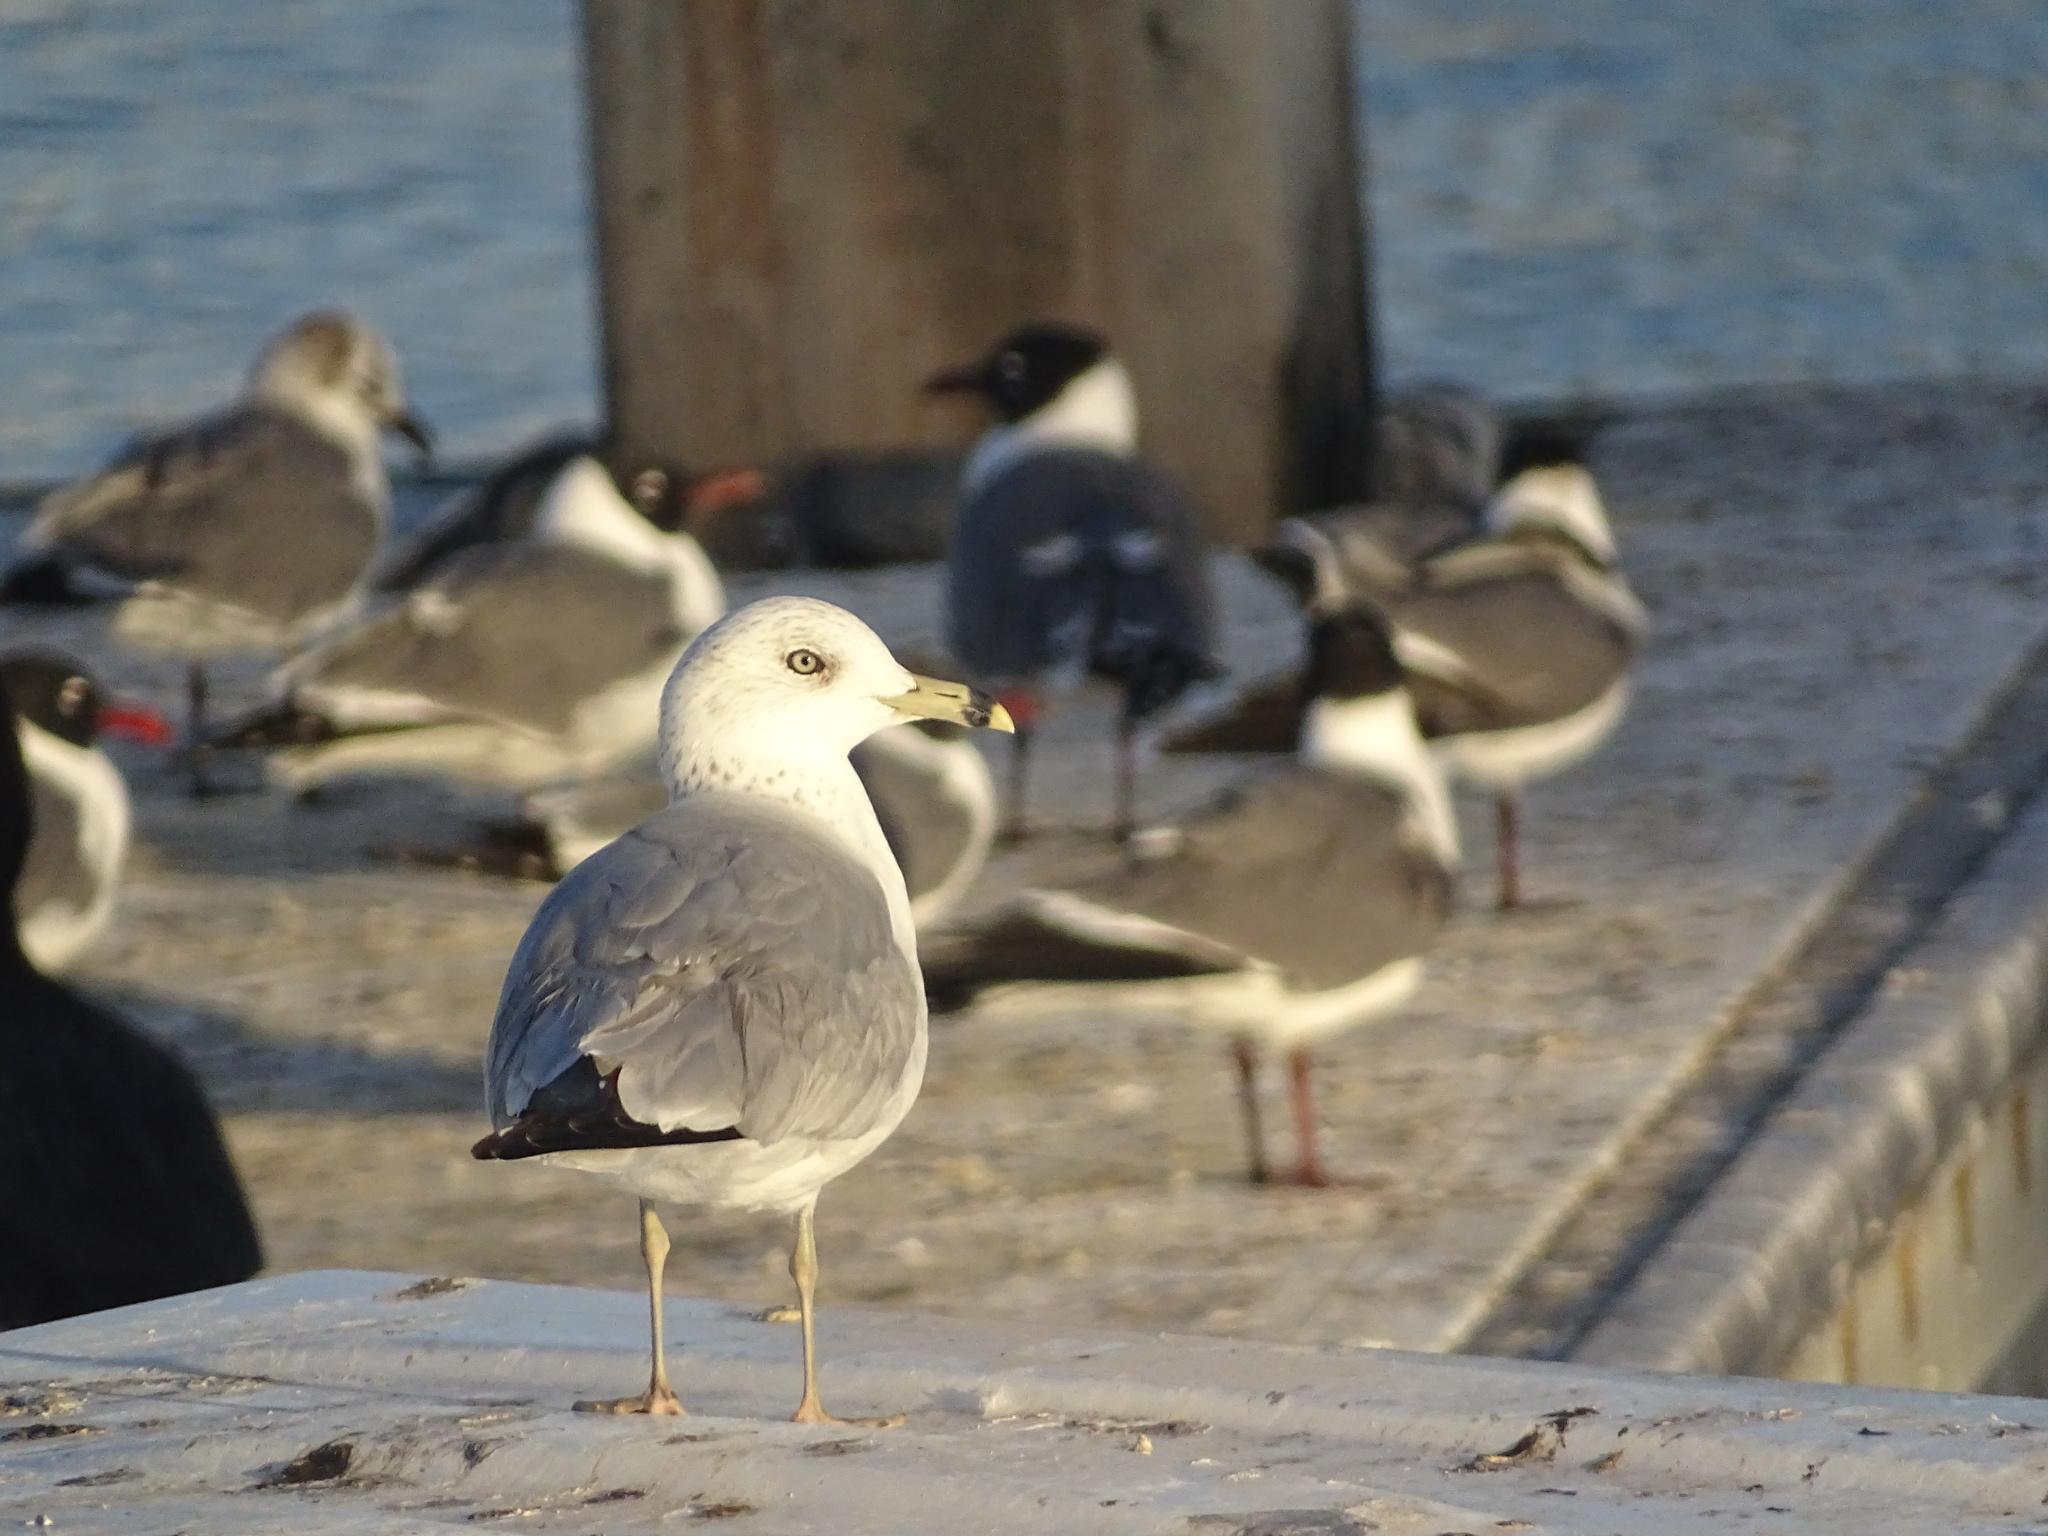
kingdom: Animalia
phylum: Chordata
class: Aves
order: Charadriiformes
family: Laridae
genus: Larus
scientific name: Larus delawarensis
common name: Ring-billed gull
